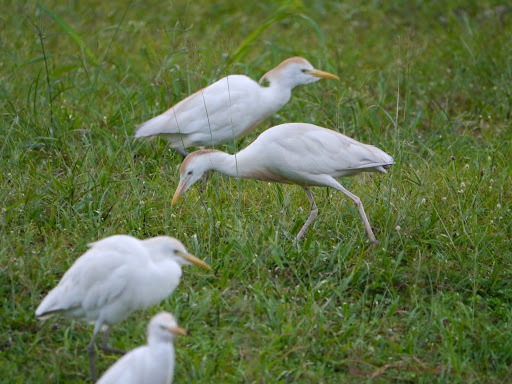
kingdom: Animalia
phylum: Chordata
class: Aves
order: Pelecaniformes
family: Ardeidae
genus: Bubulcus
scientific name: Bubulcus ibis
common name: Cattle egret
